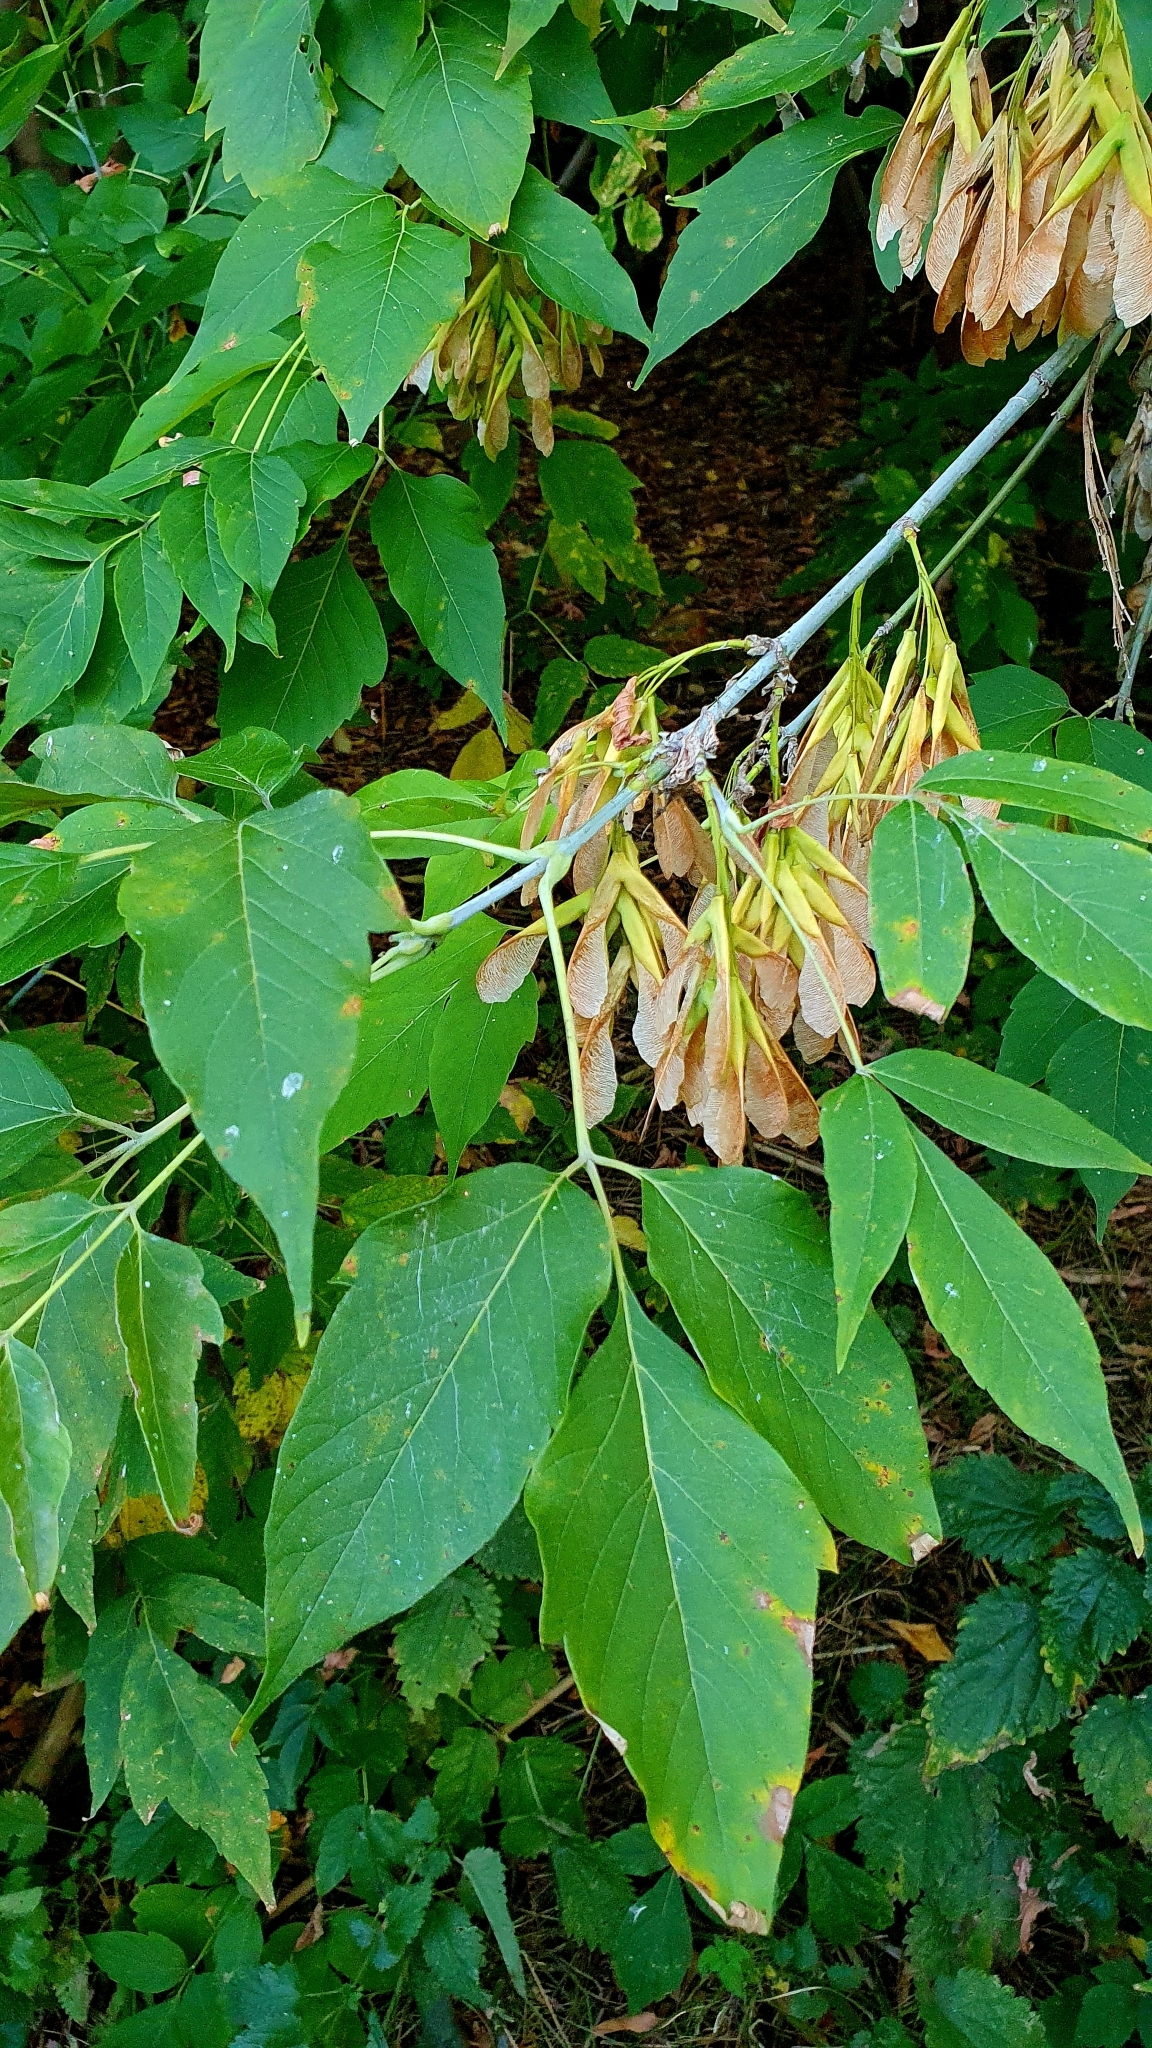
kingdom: Plantae
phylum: Tracheophyta
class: Magnoliopsida
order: Sapindales
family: Sapindaceae
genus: Acer
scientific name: Acer negundo
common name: Ashleaf maple
